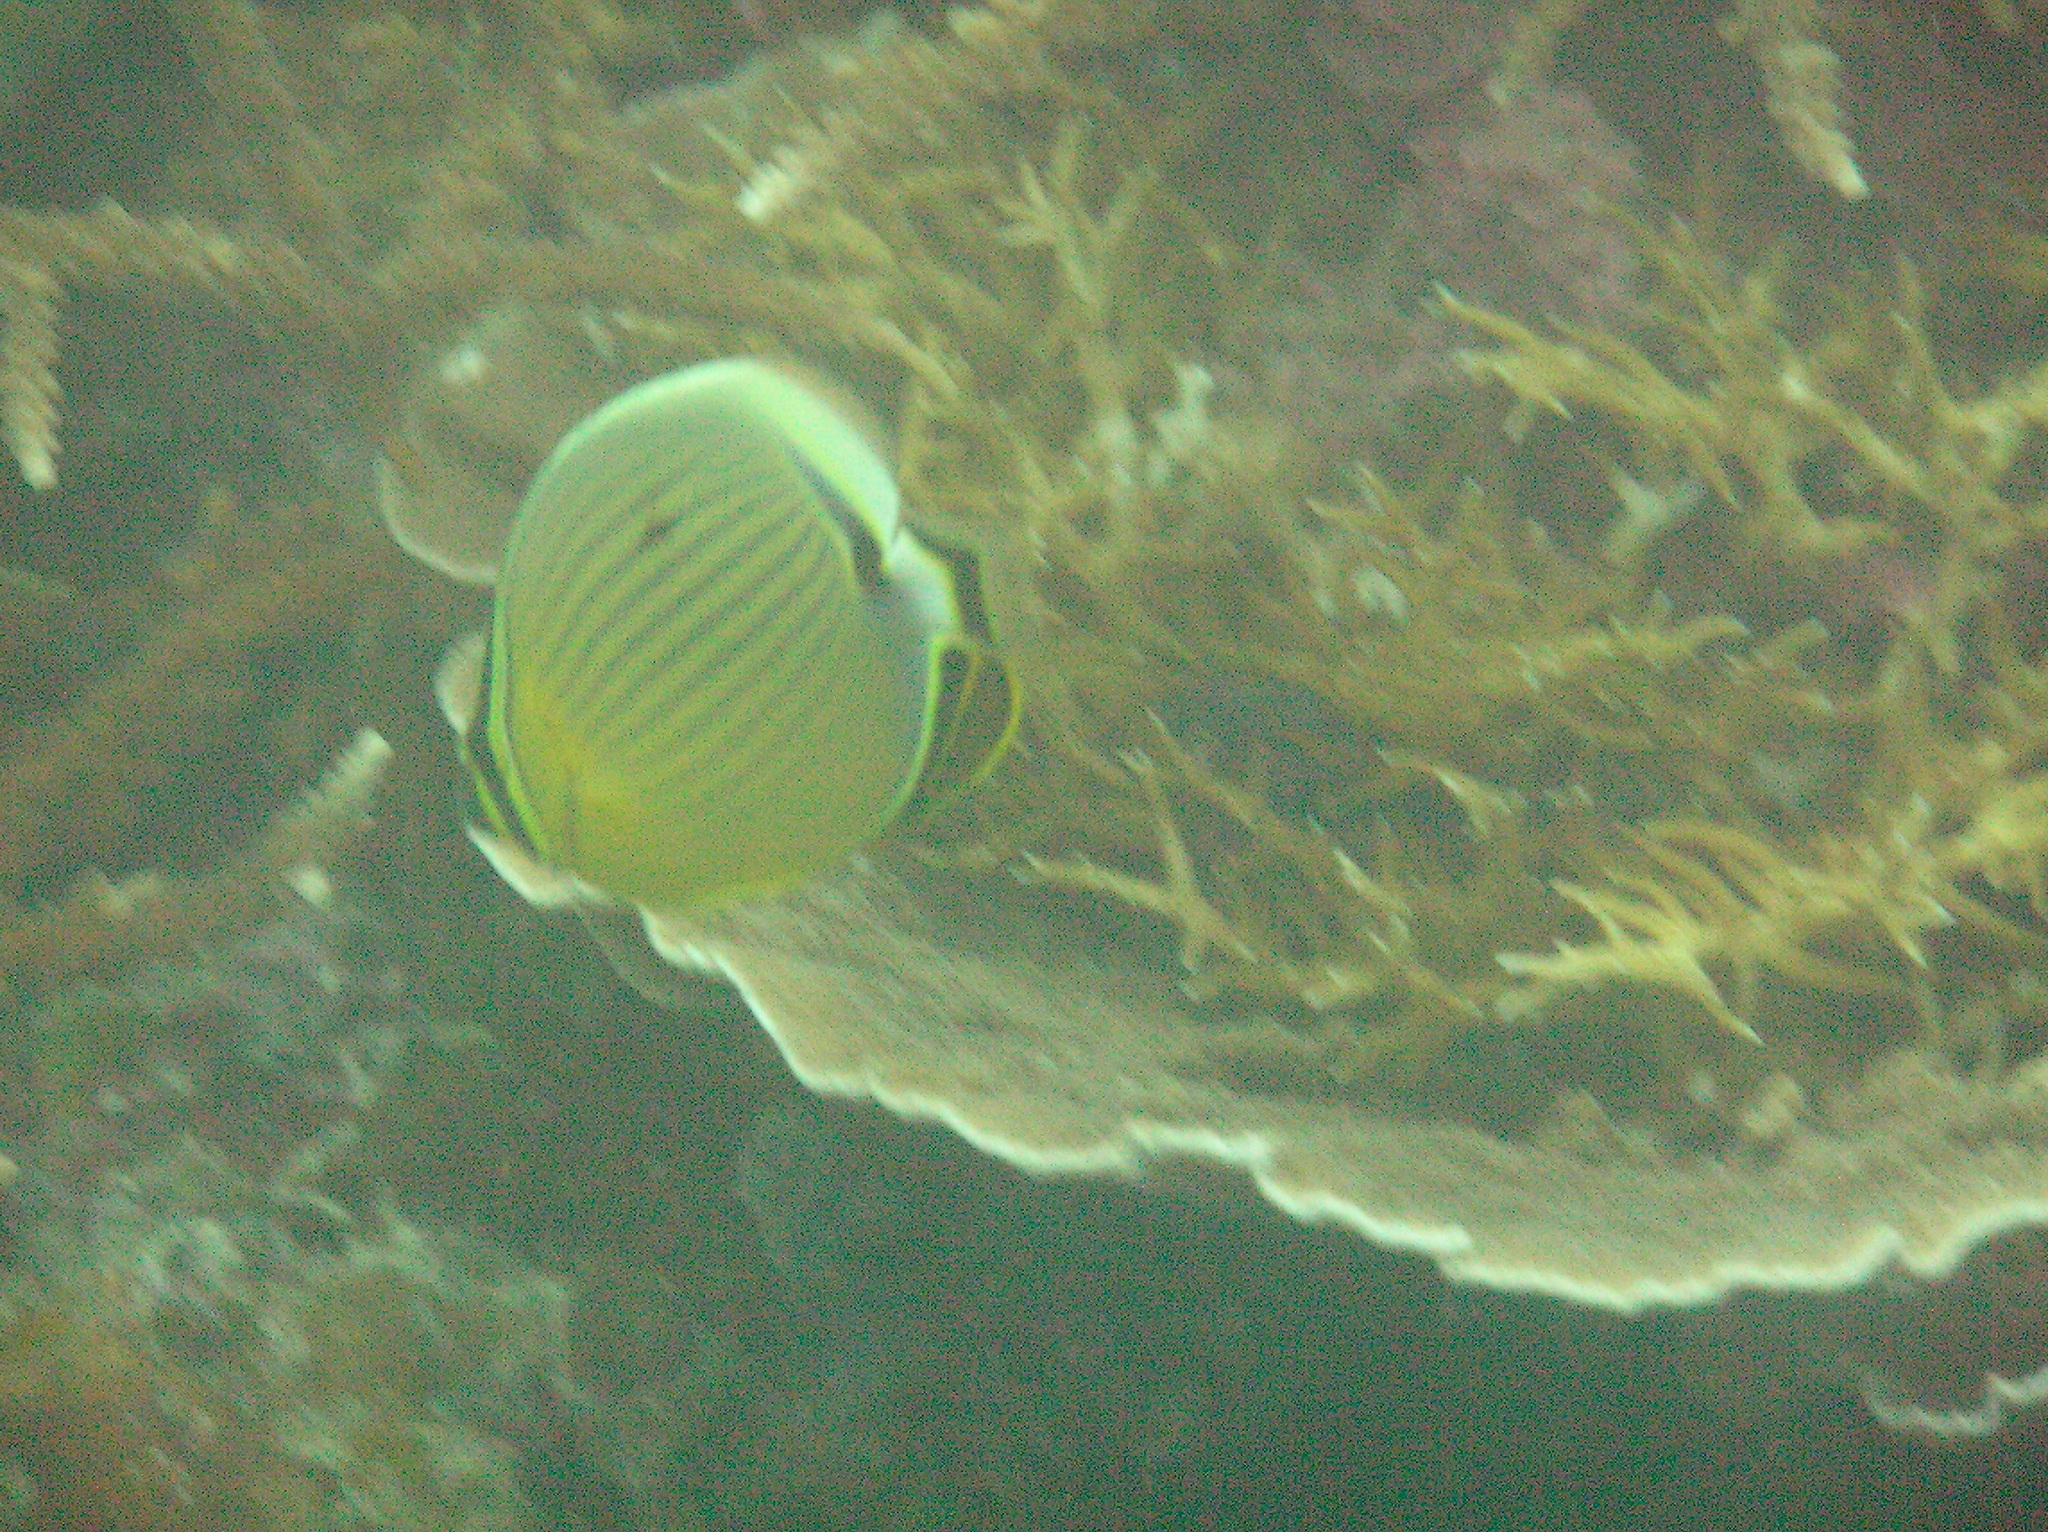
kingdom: Animalia
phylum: Chordata
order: Perciformes
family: Chaetodontidae
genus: Chaetodon
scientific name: Chaetodon lunulatus
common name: Redfin butterflyfish
